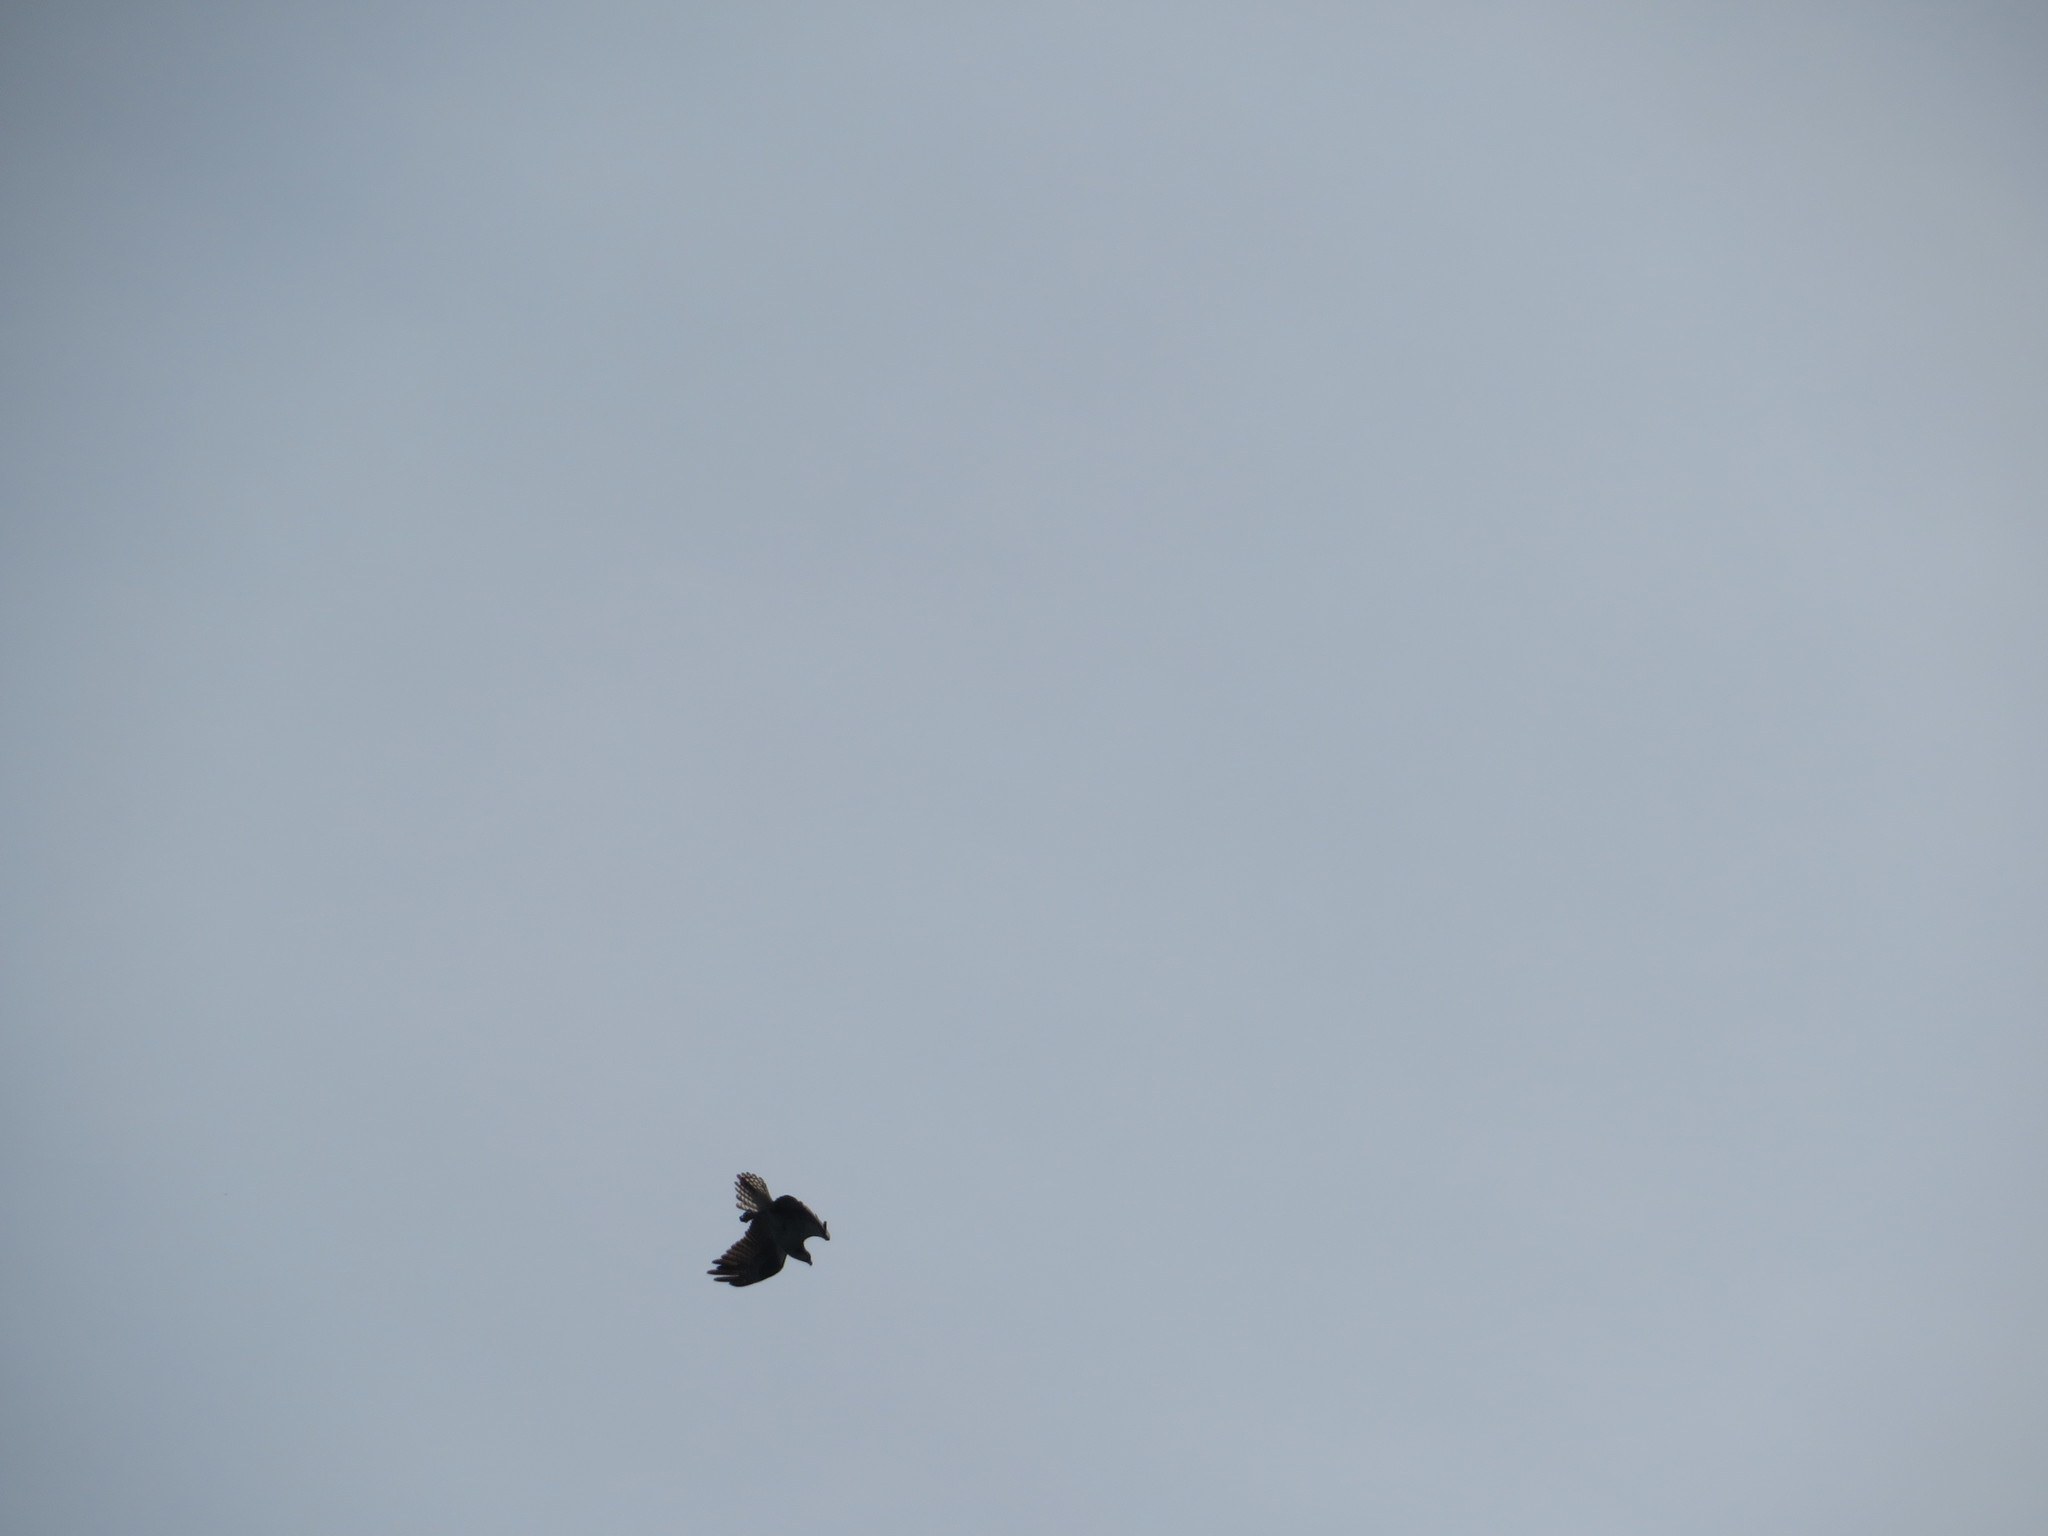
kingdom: Animalia
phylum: Chordata
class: Aves
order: Accipitriformes
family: Pandionidae
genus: Pandion
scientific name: Pandion haliaetus
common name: Osprey
